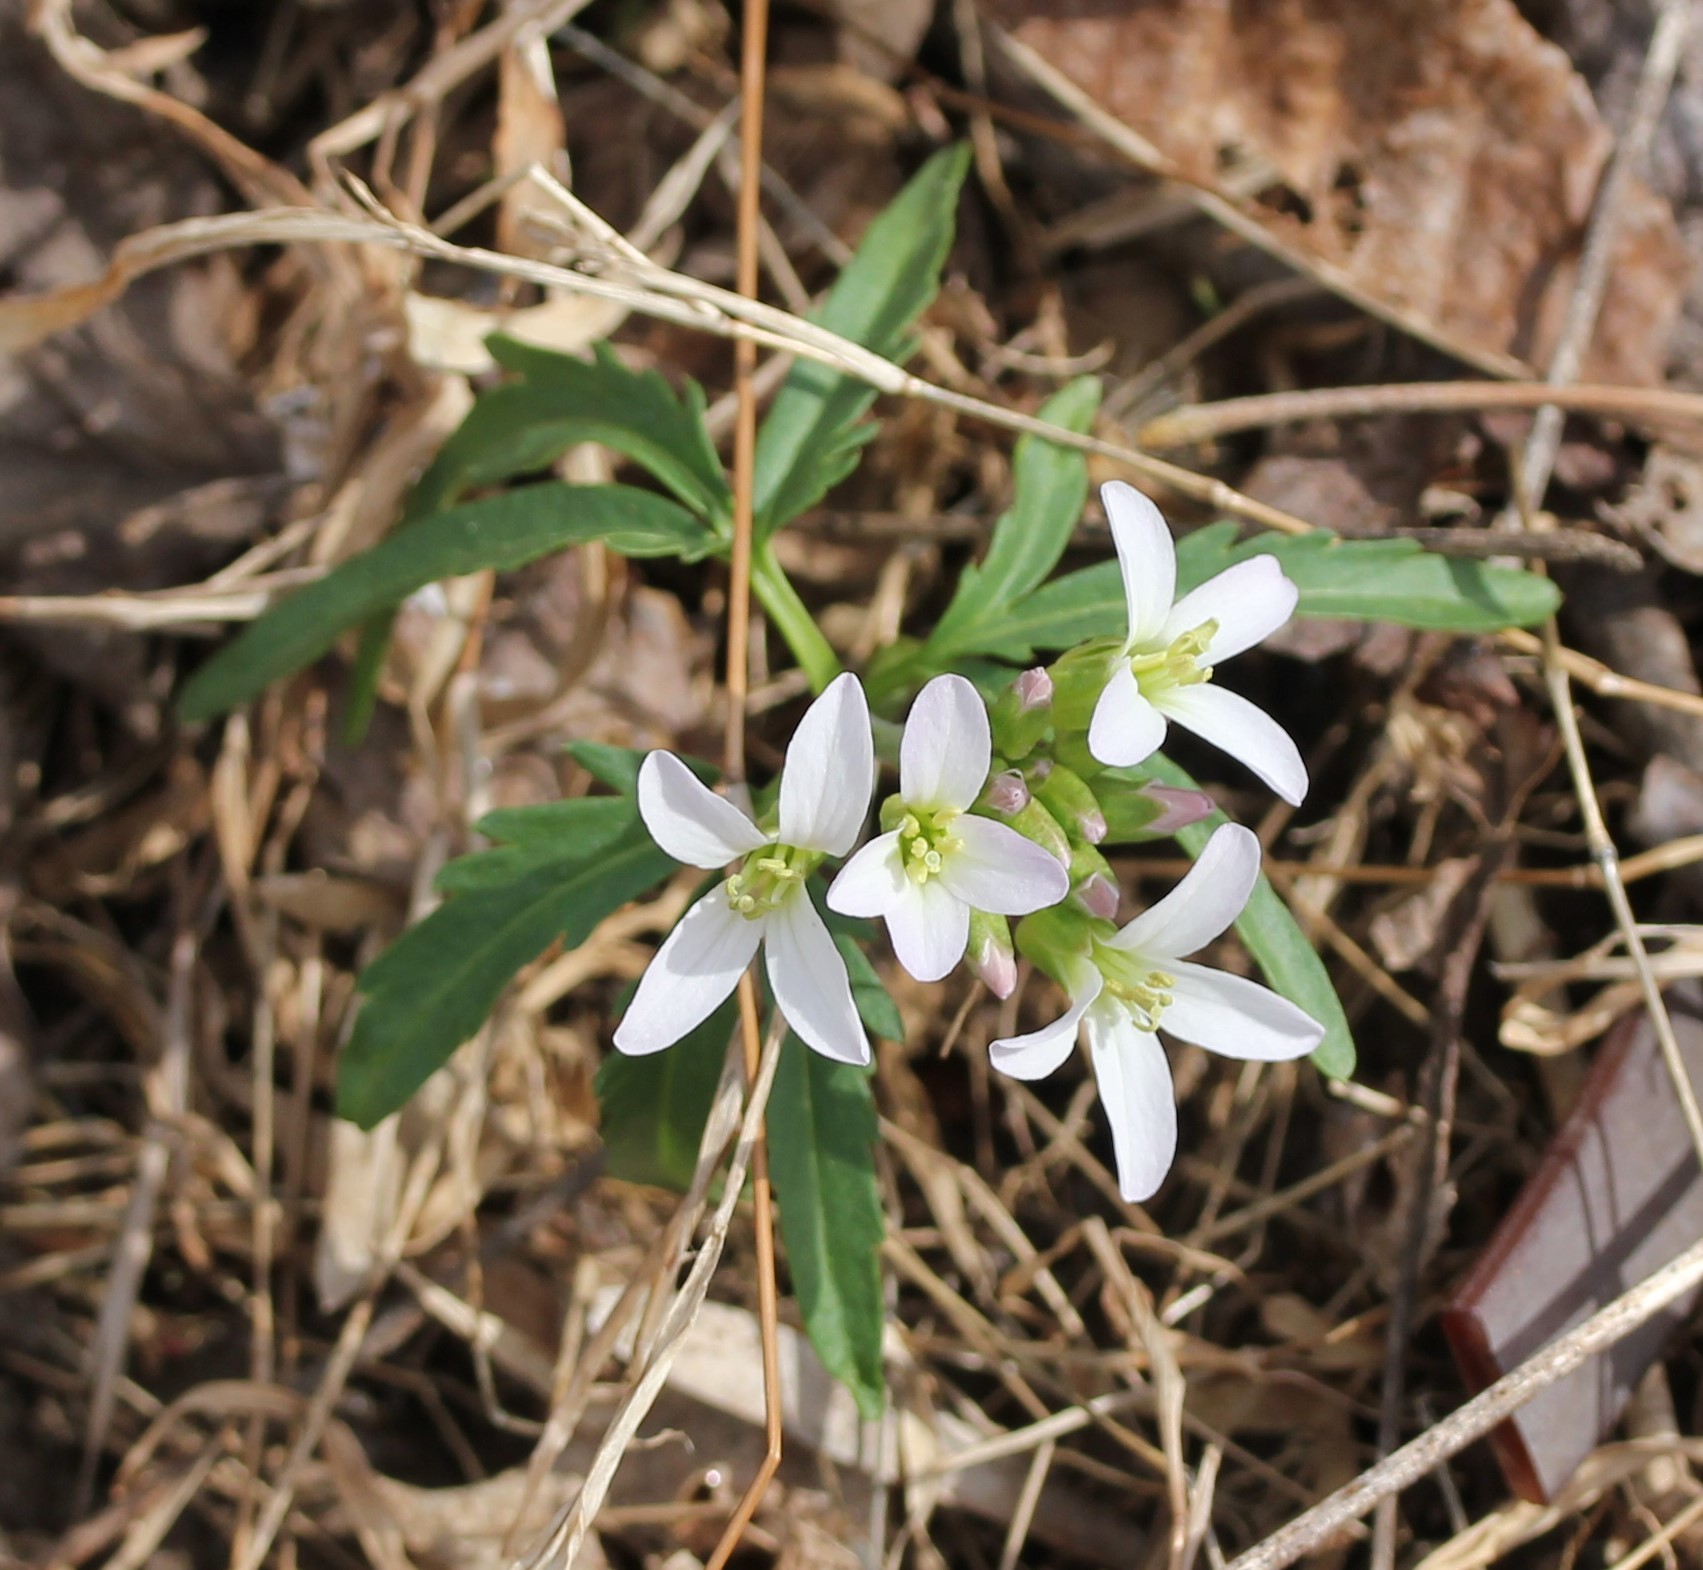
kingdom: Plantae
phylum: Tracheophyta
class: Magnoliopsida
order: Brassicales
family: Brassicaceae
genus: Cardamine
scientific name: Cardamine concatenata
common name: Cut-leaf toothcup
